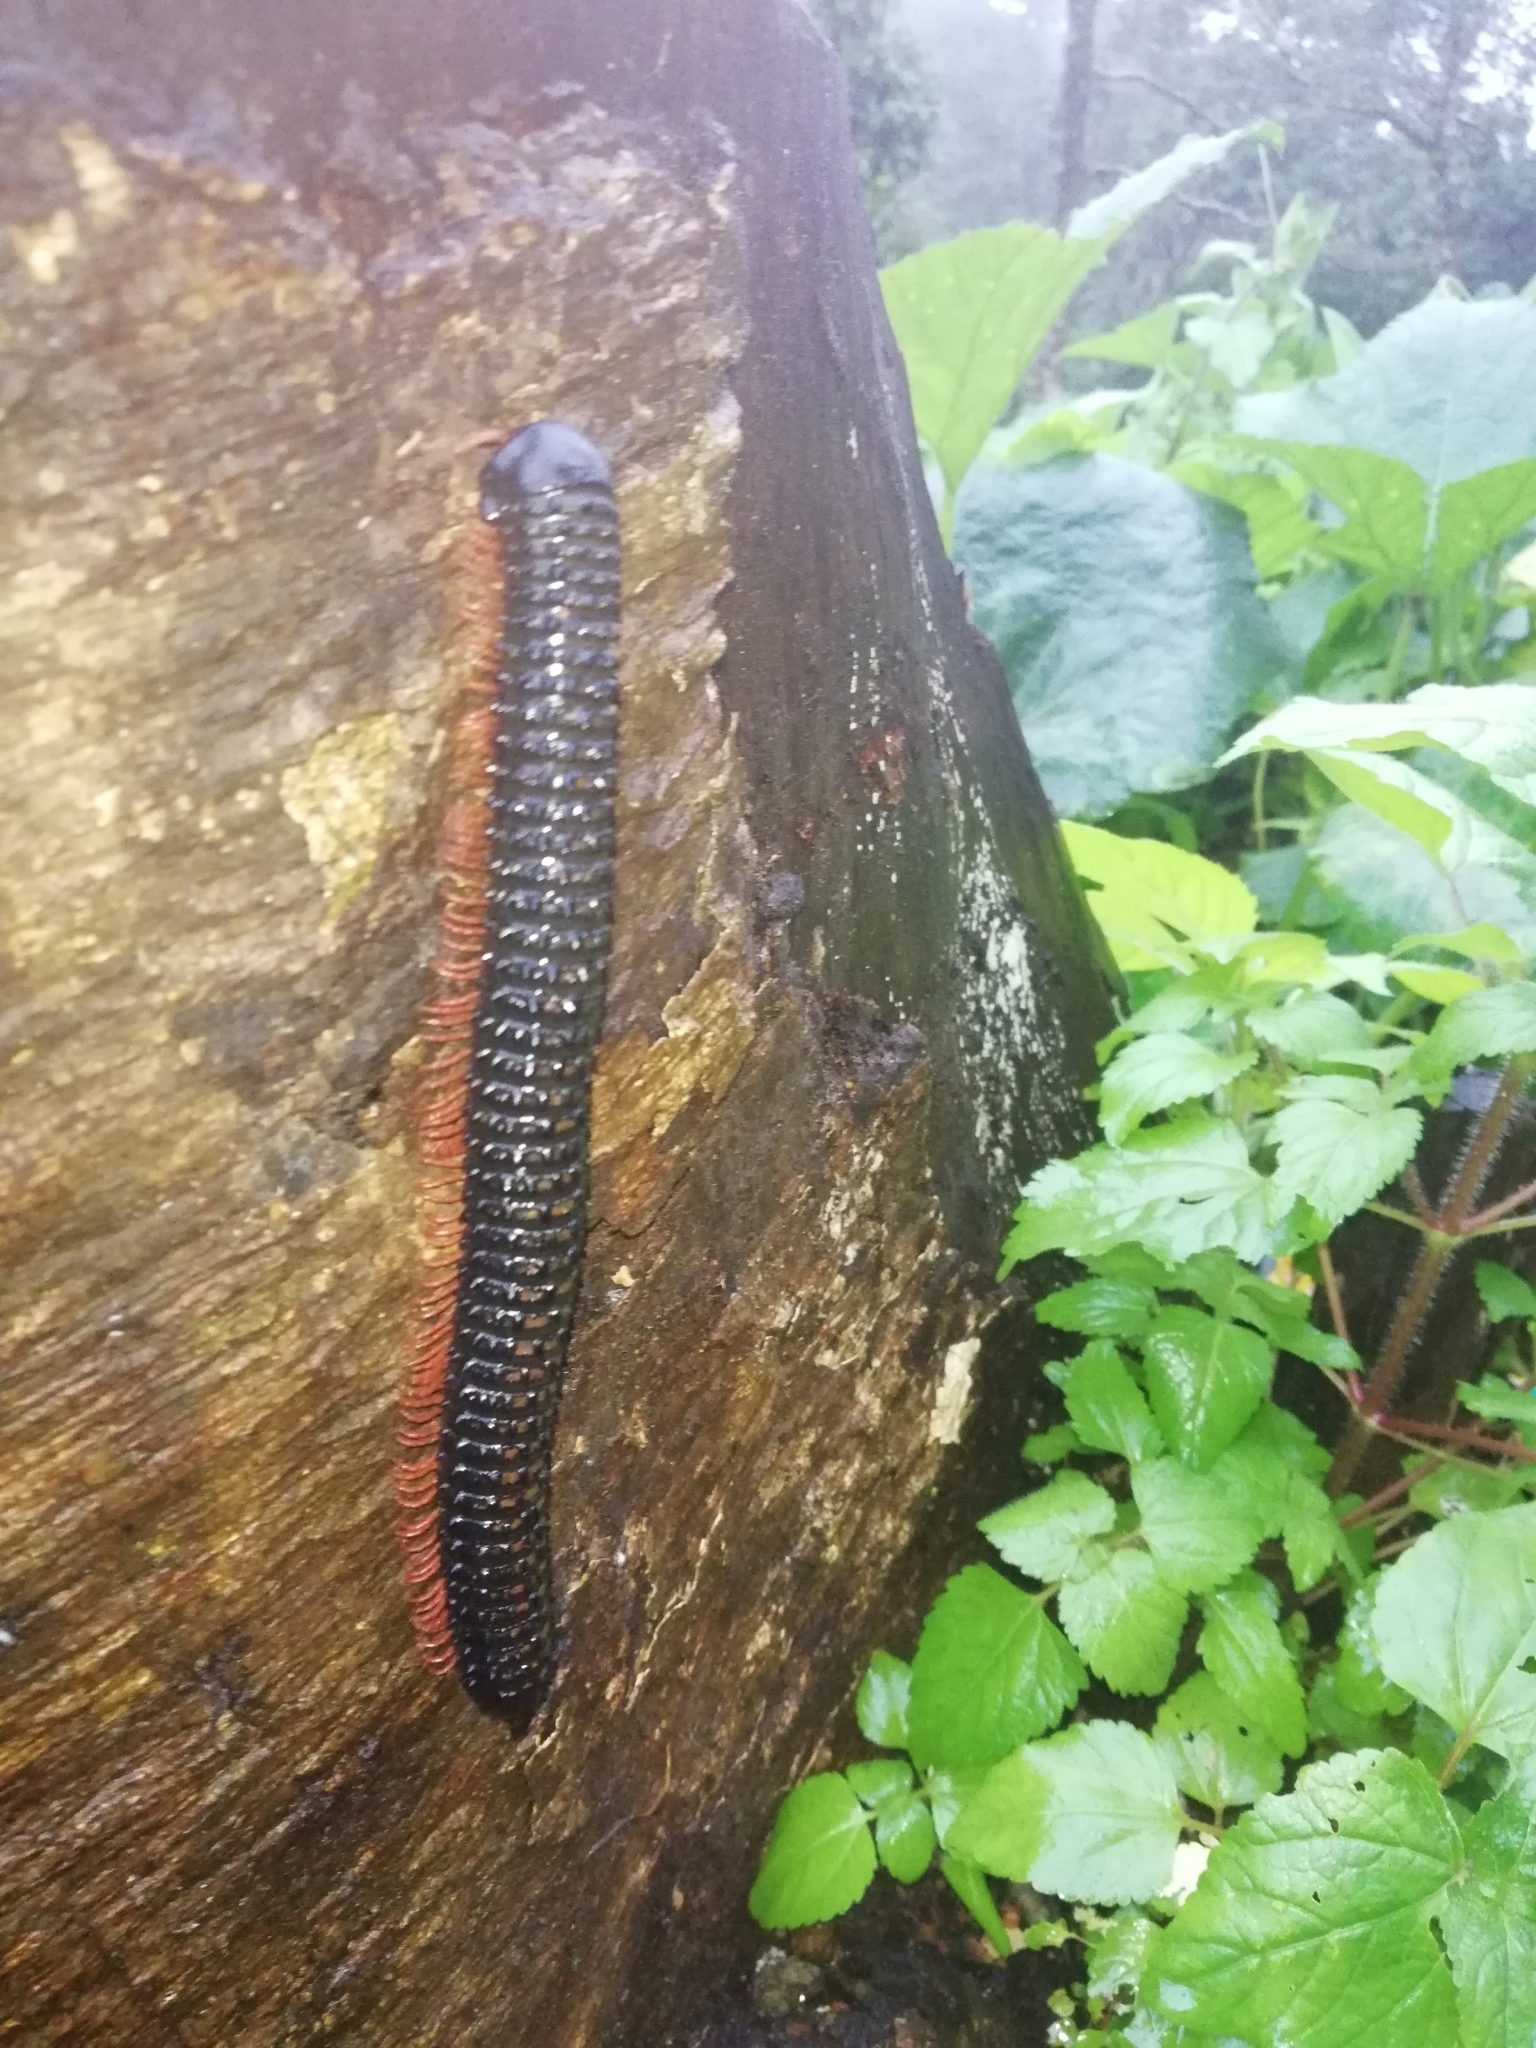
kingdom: Animalia
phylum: Arthropoda
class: Diplopoda
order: Spirobolida
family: Pachybolidae
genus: Eucentrobolus
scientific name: Eucentrobolus tamulus
